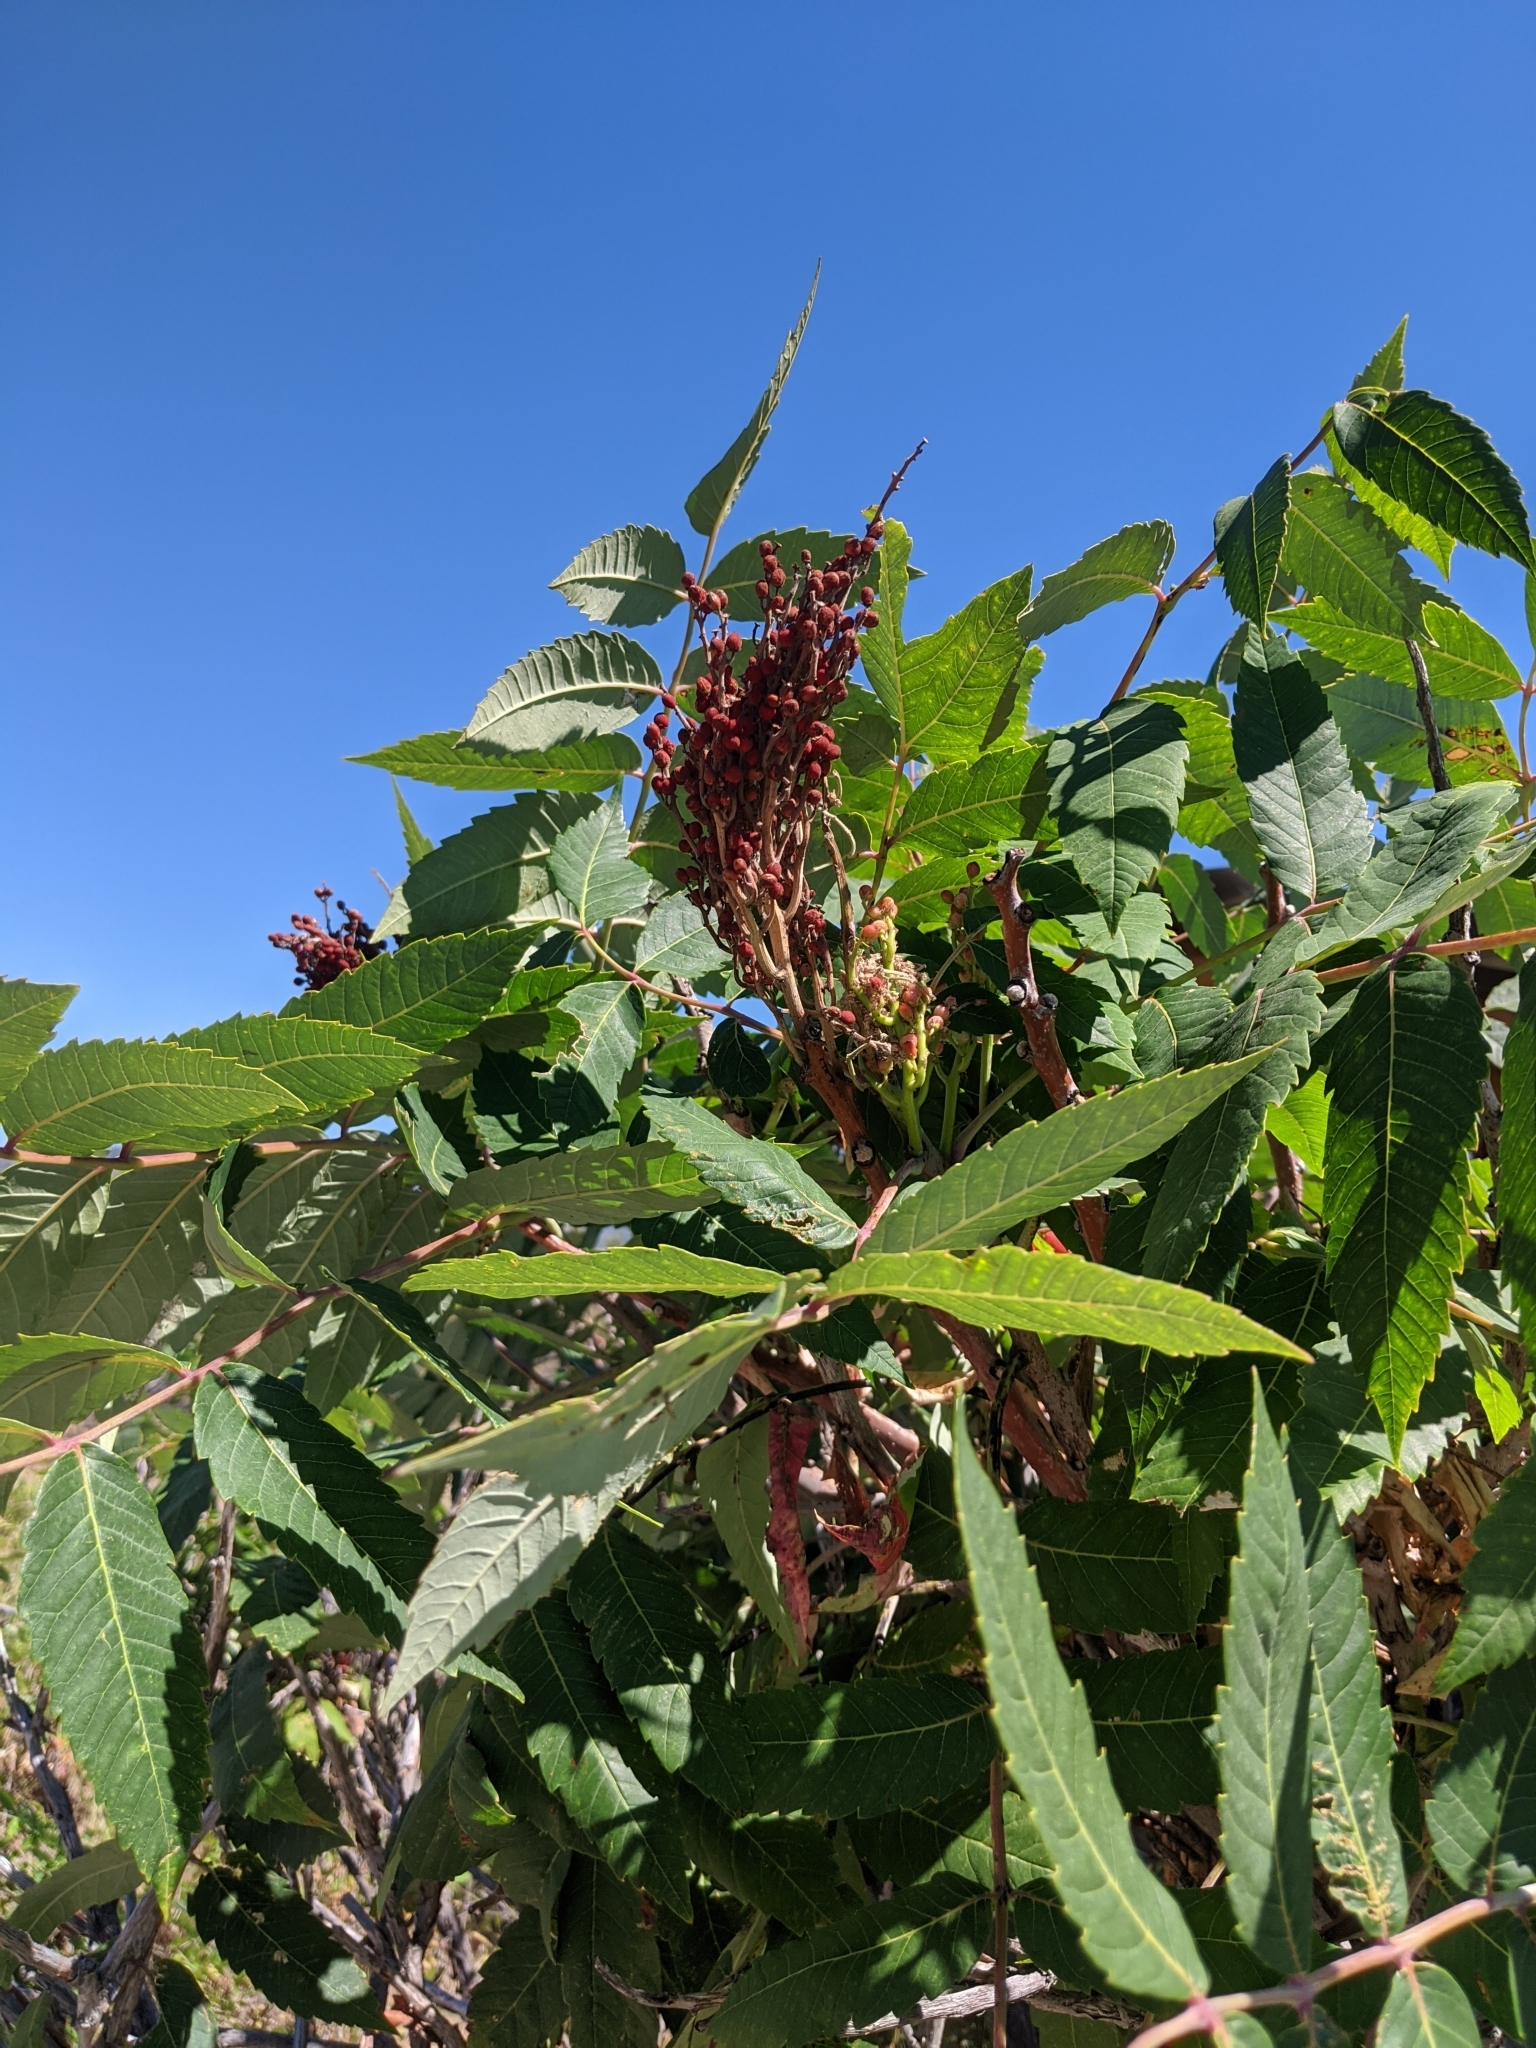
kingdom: Plantae
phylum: Tracheophyta
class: Magnoliopsida
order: Sapindales
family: Anacardiaceae
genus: Rhus
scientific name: Rhus glabra
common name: Scarlet sumac
